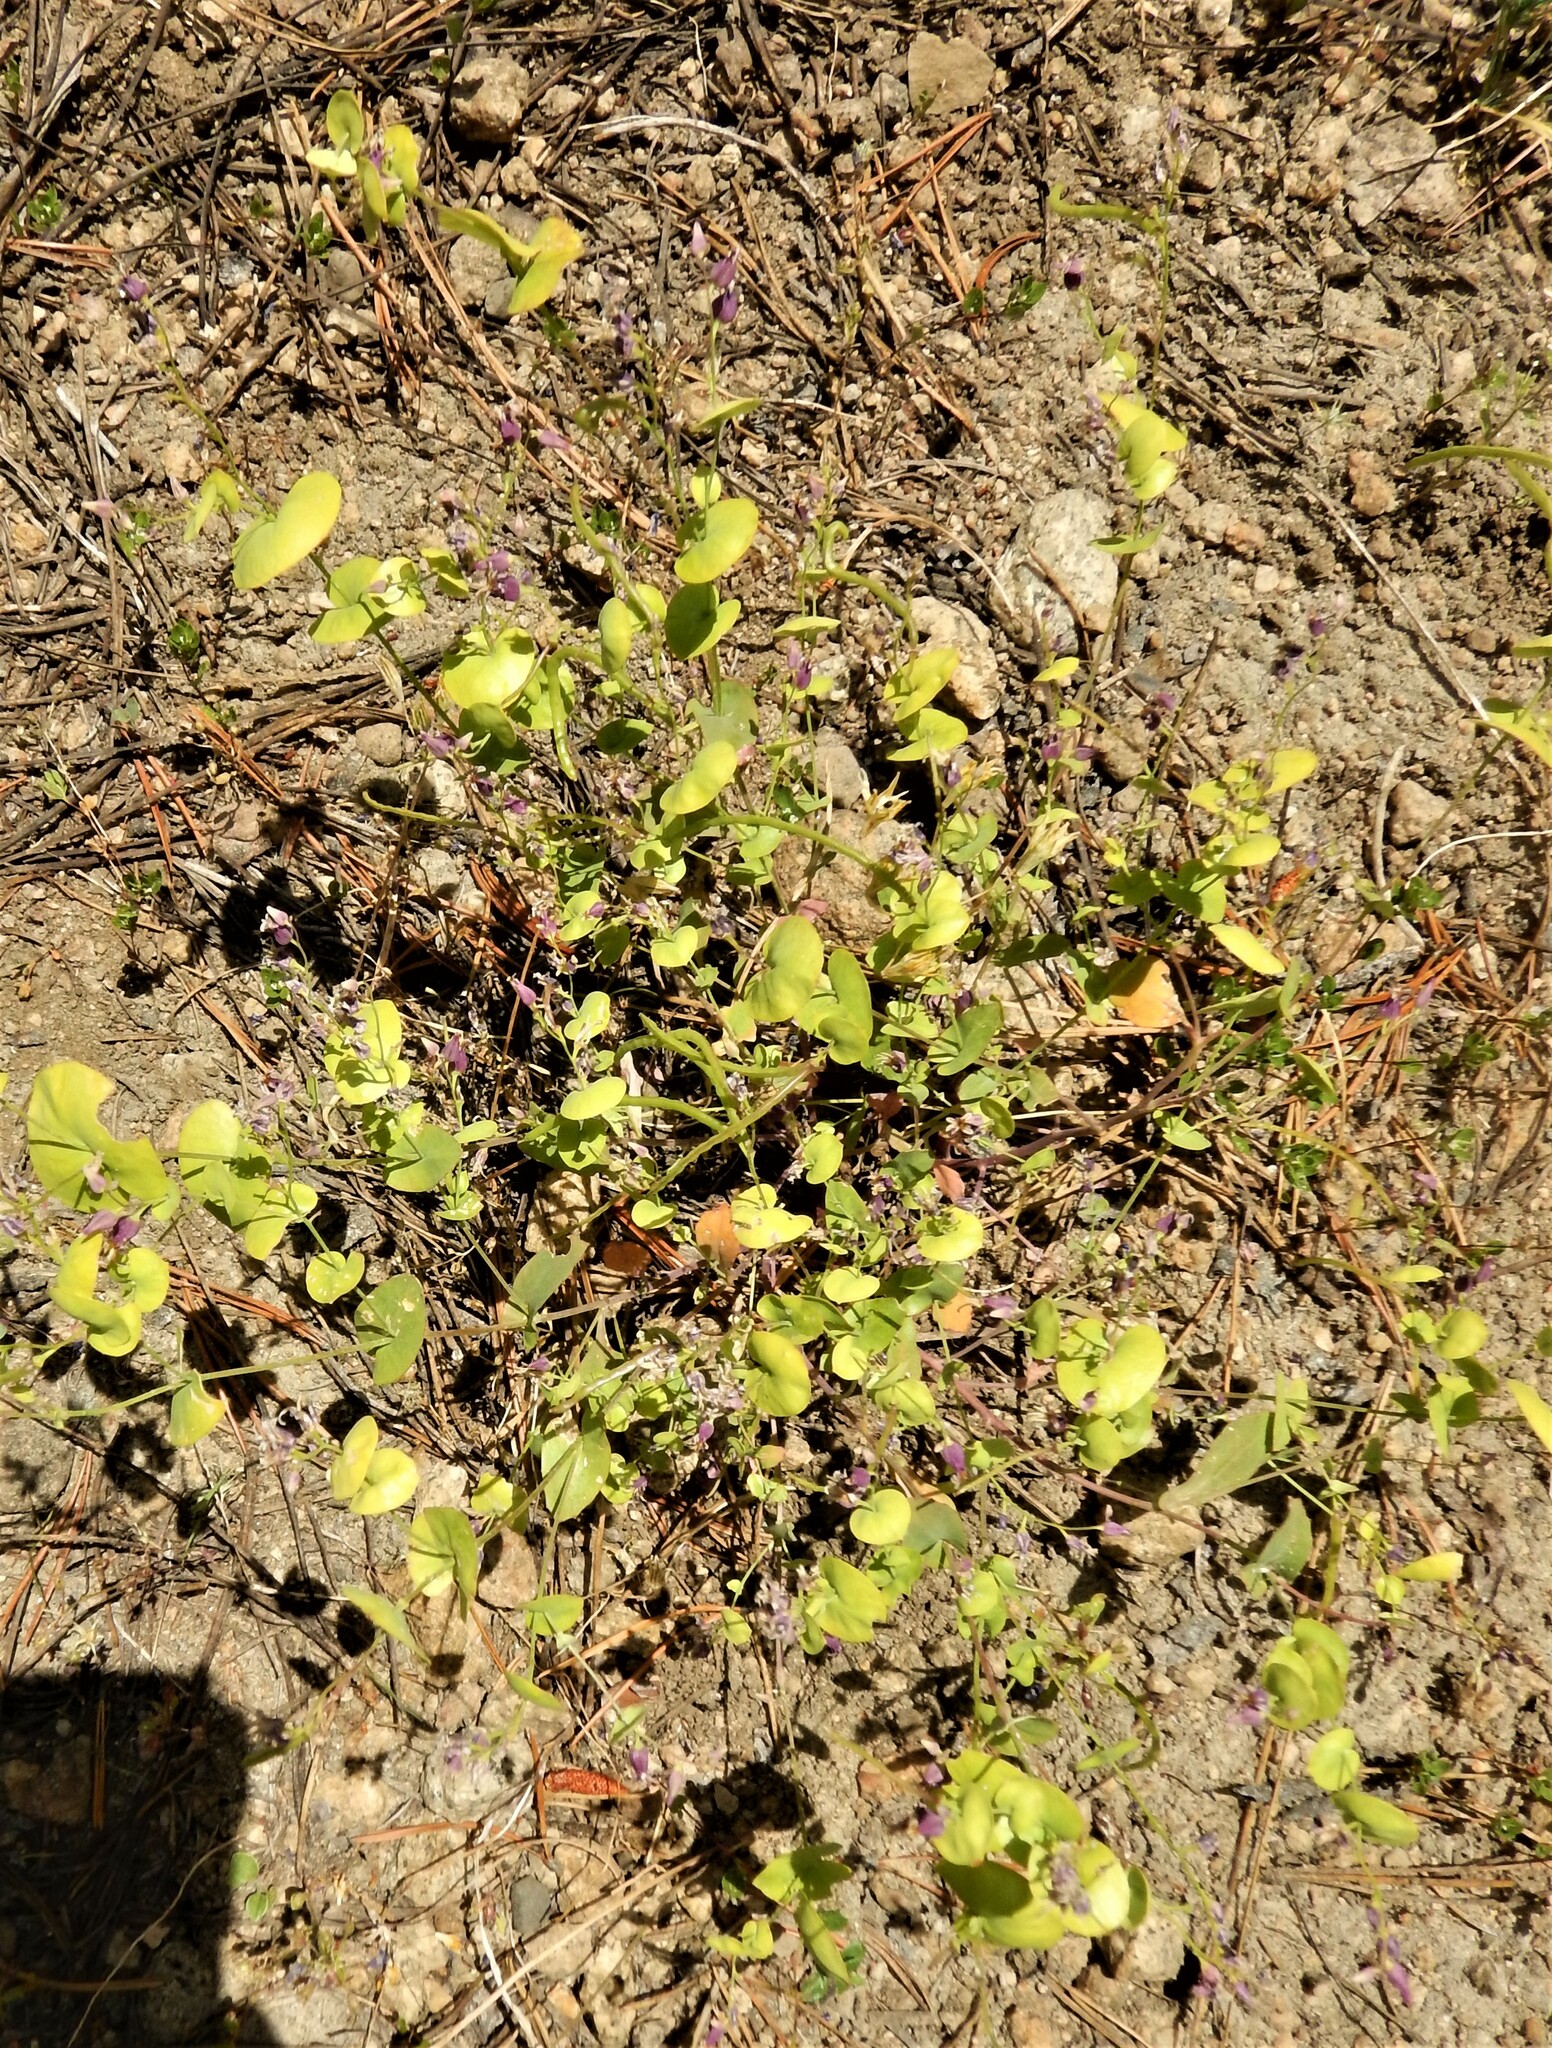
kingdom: Plantae
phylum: Tracheophyta
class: Magnoliopsida
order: Brassicales
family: Brassicaceae
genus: Streptanthus
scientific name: Streptanthus tortuosus
